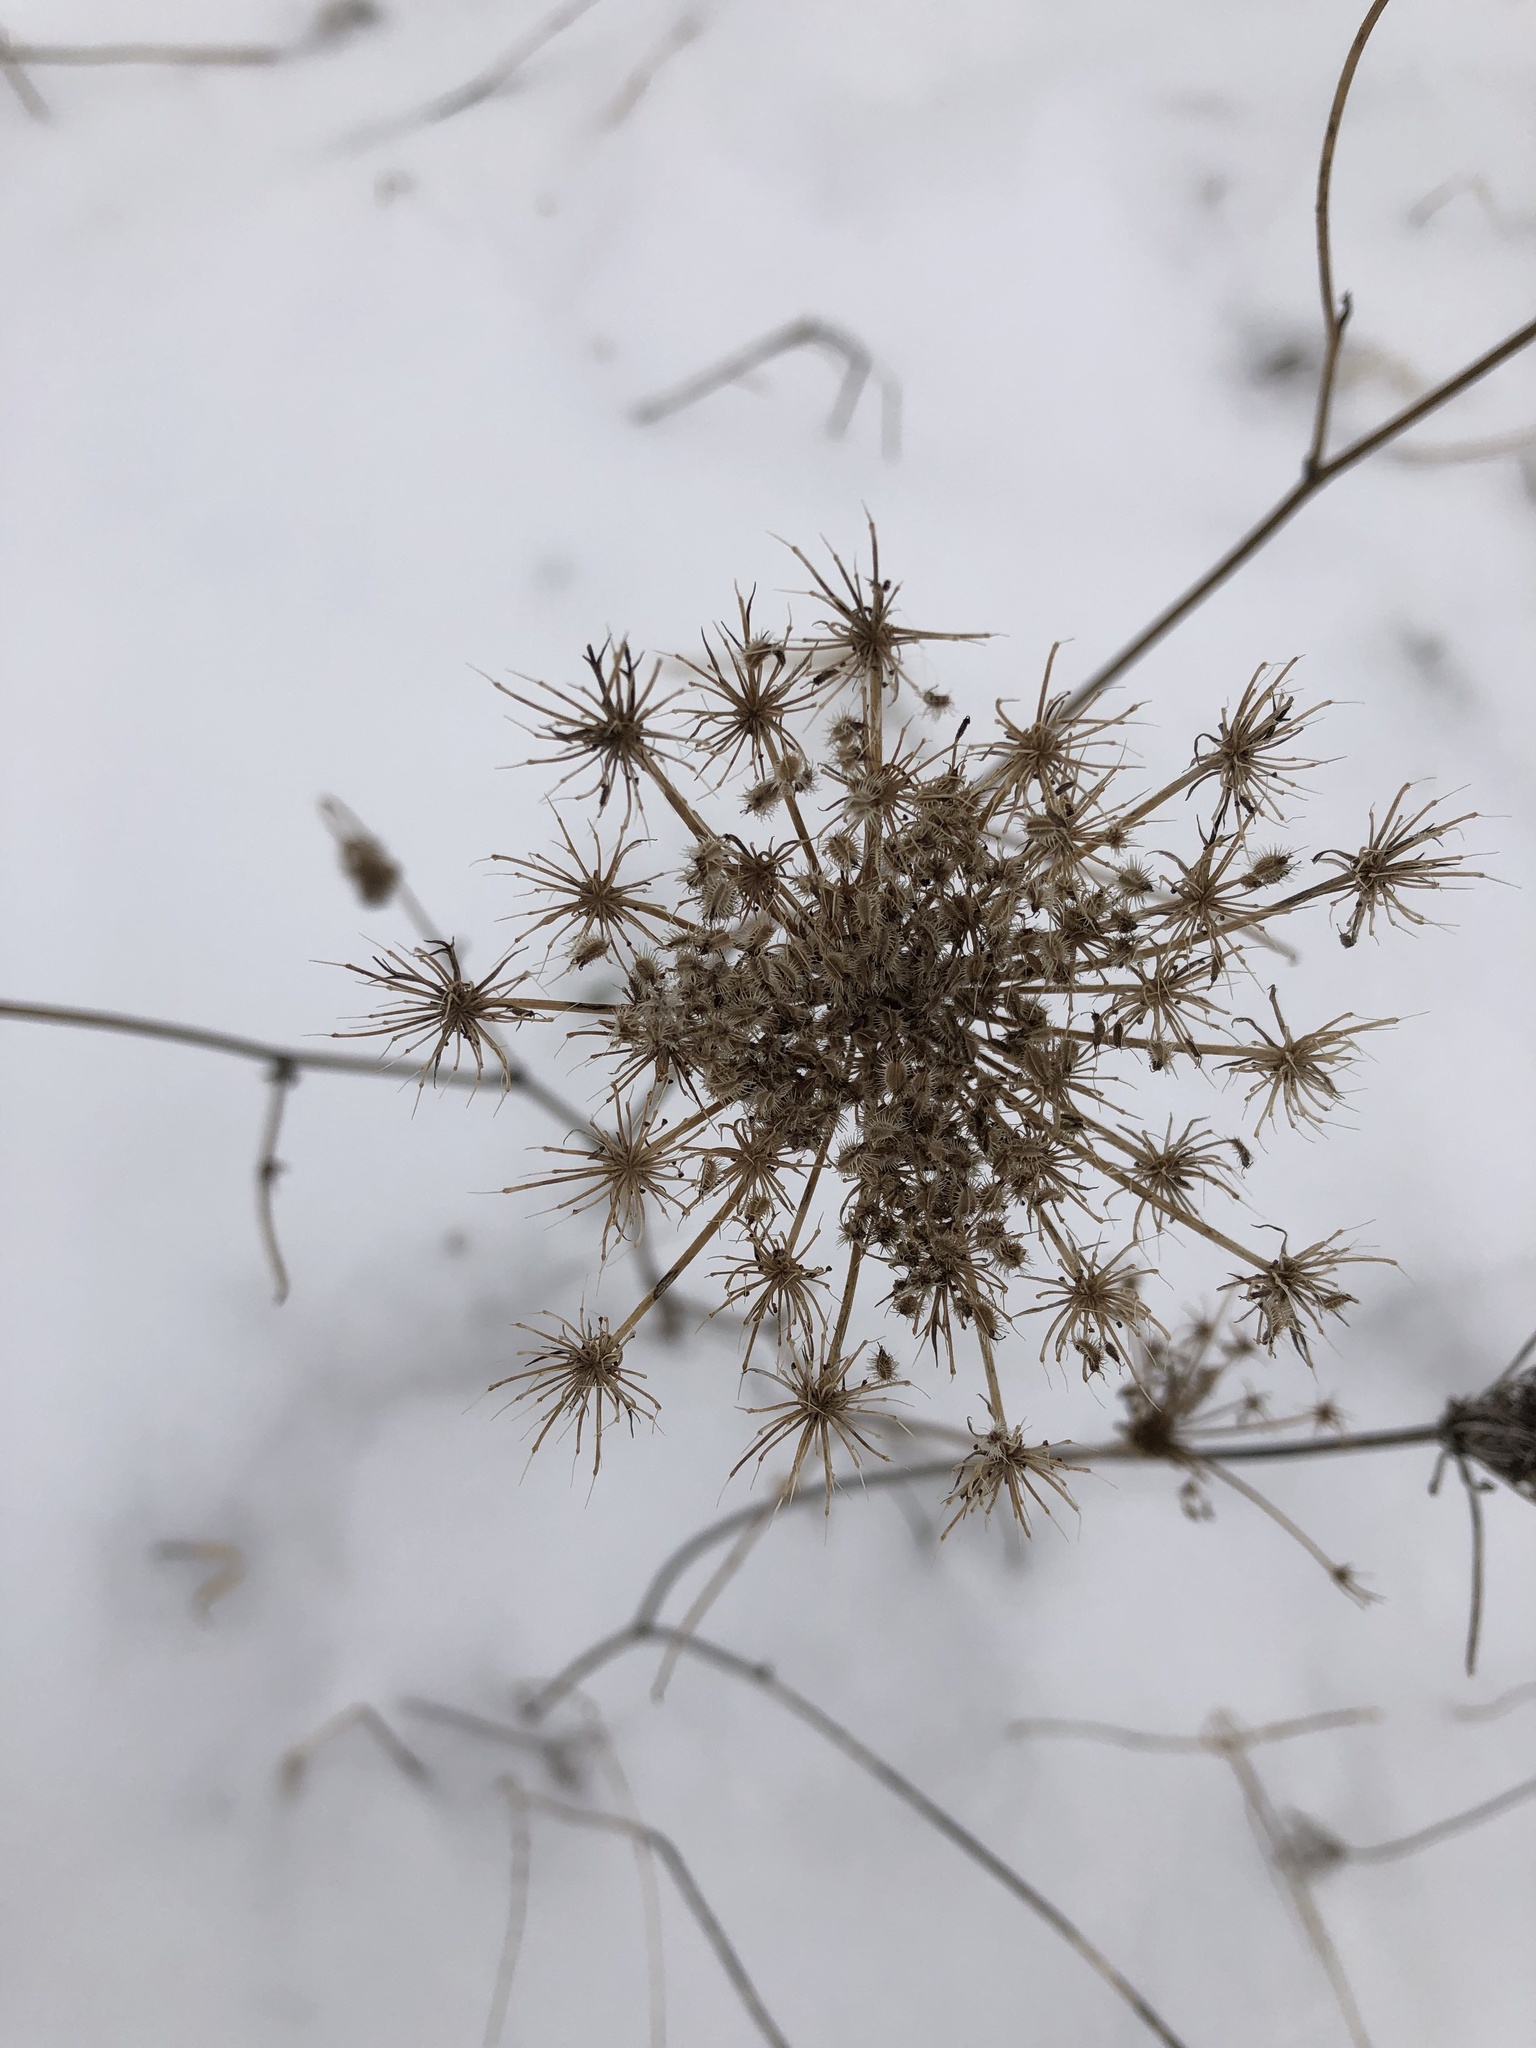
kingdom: Plantae
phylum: Tracheophyta
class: Magnoliopsida
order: Apiales
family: Apiaceae
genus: Daucus
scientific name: Daucus carota
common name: Wild carrot
